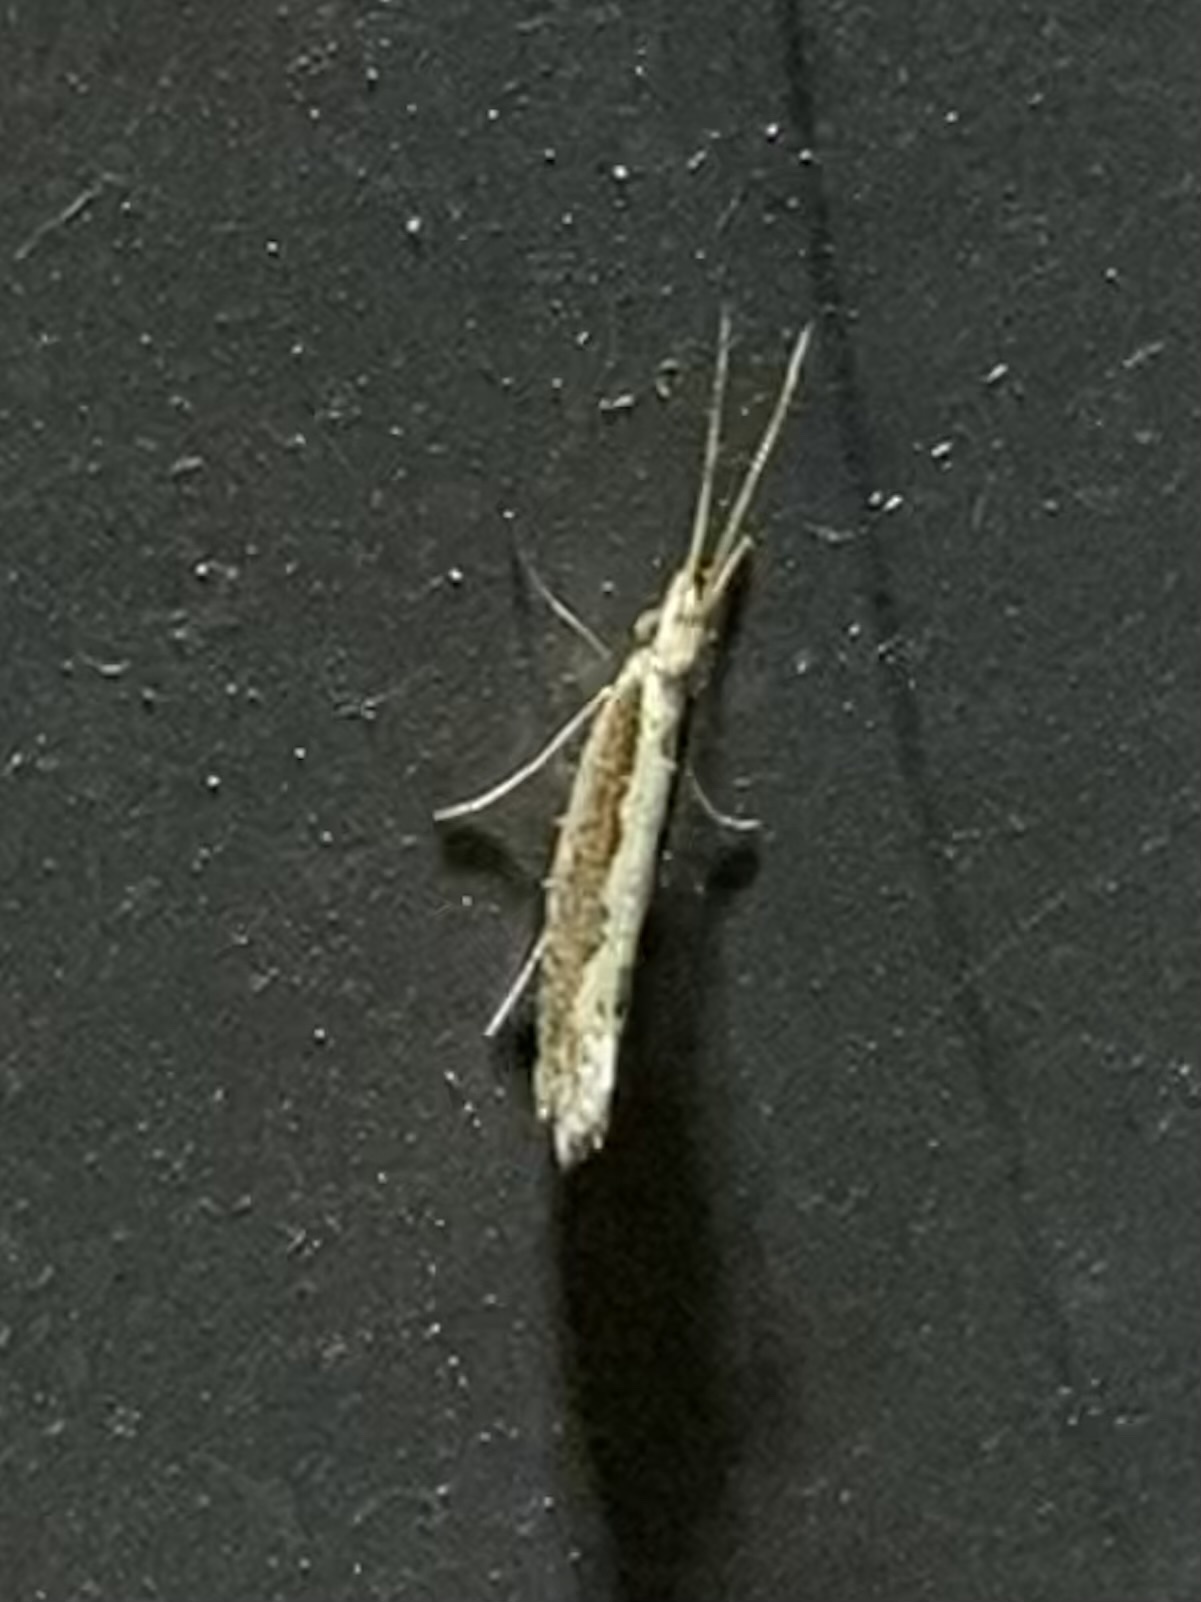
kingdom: Animalia
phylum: Arthropoda
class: Insecta
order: Lepidoptera
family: Plutellidae
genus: Plutella
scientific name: Plutella xylostella
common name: Diamond-back moth
